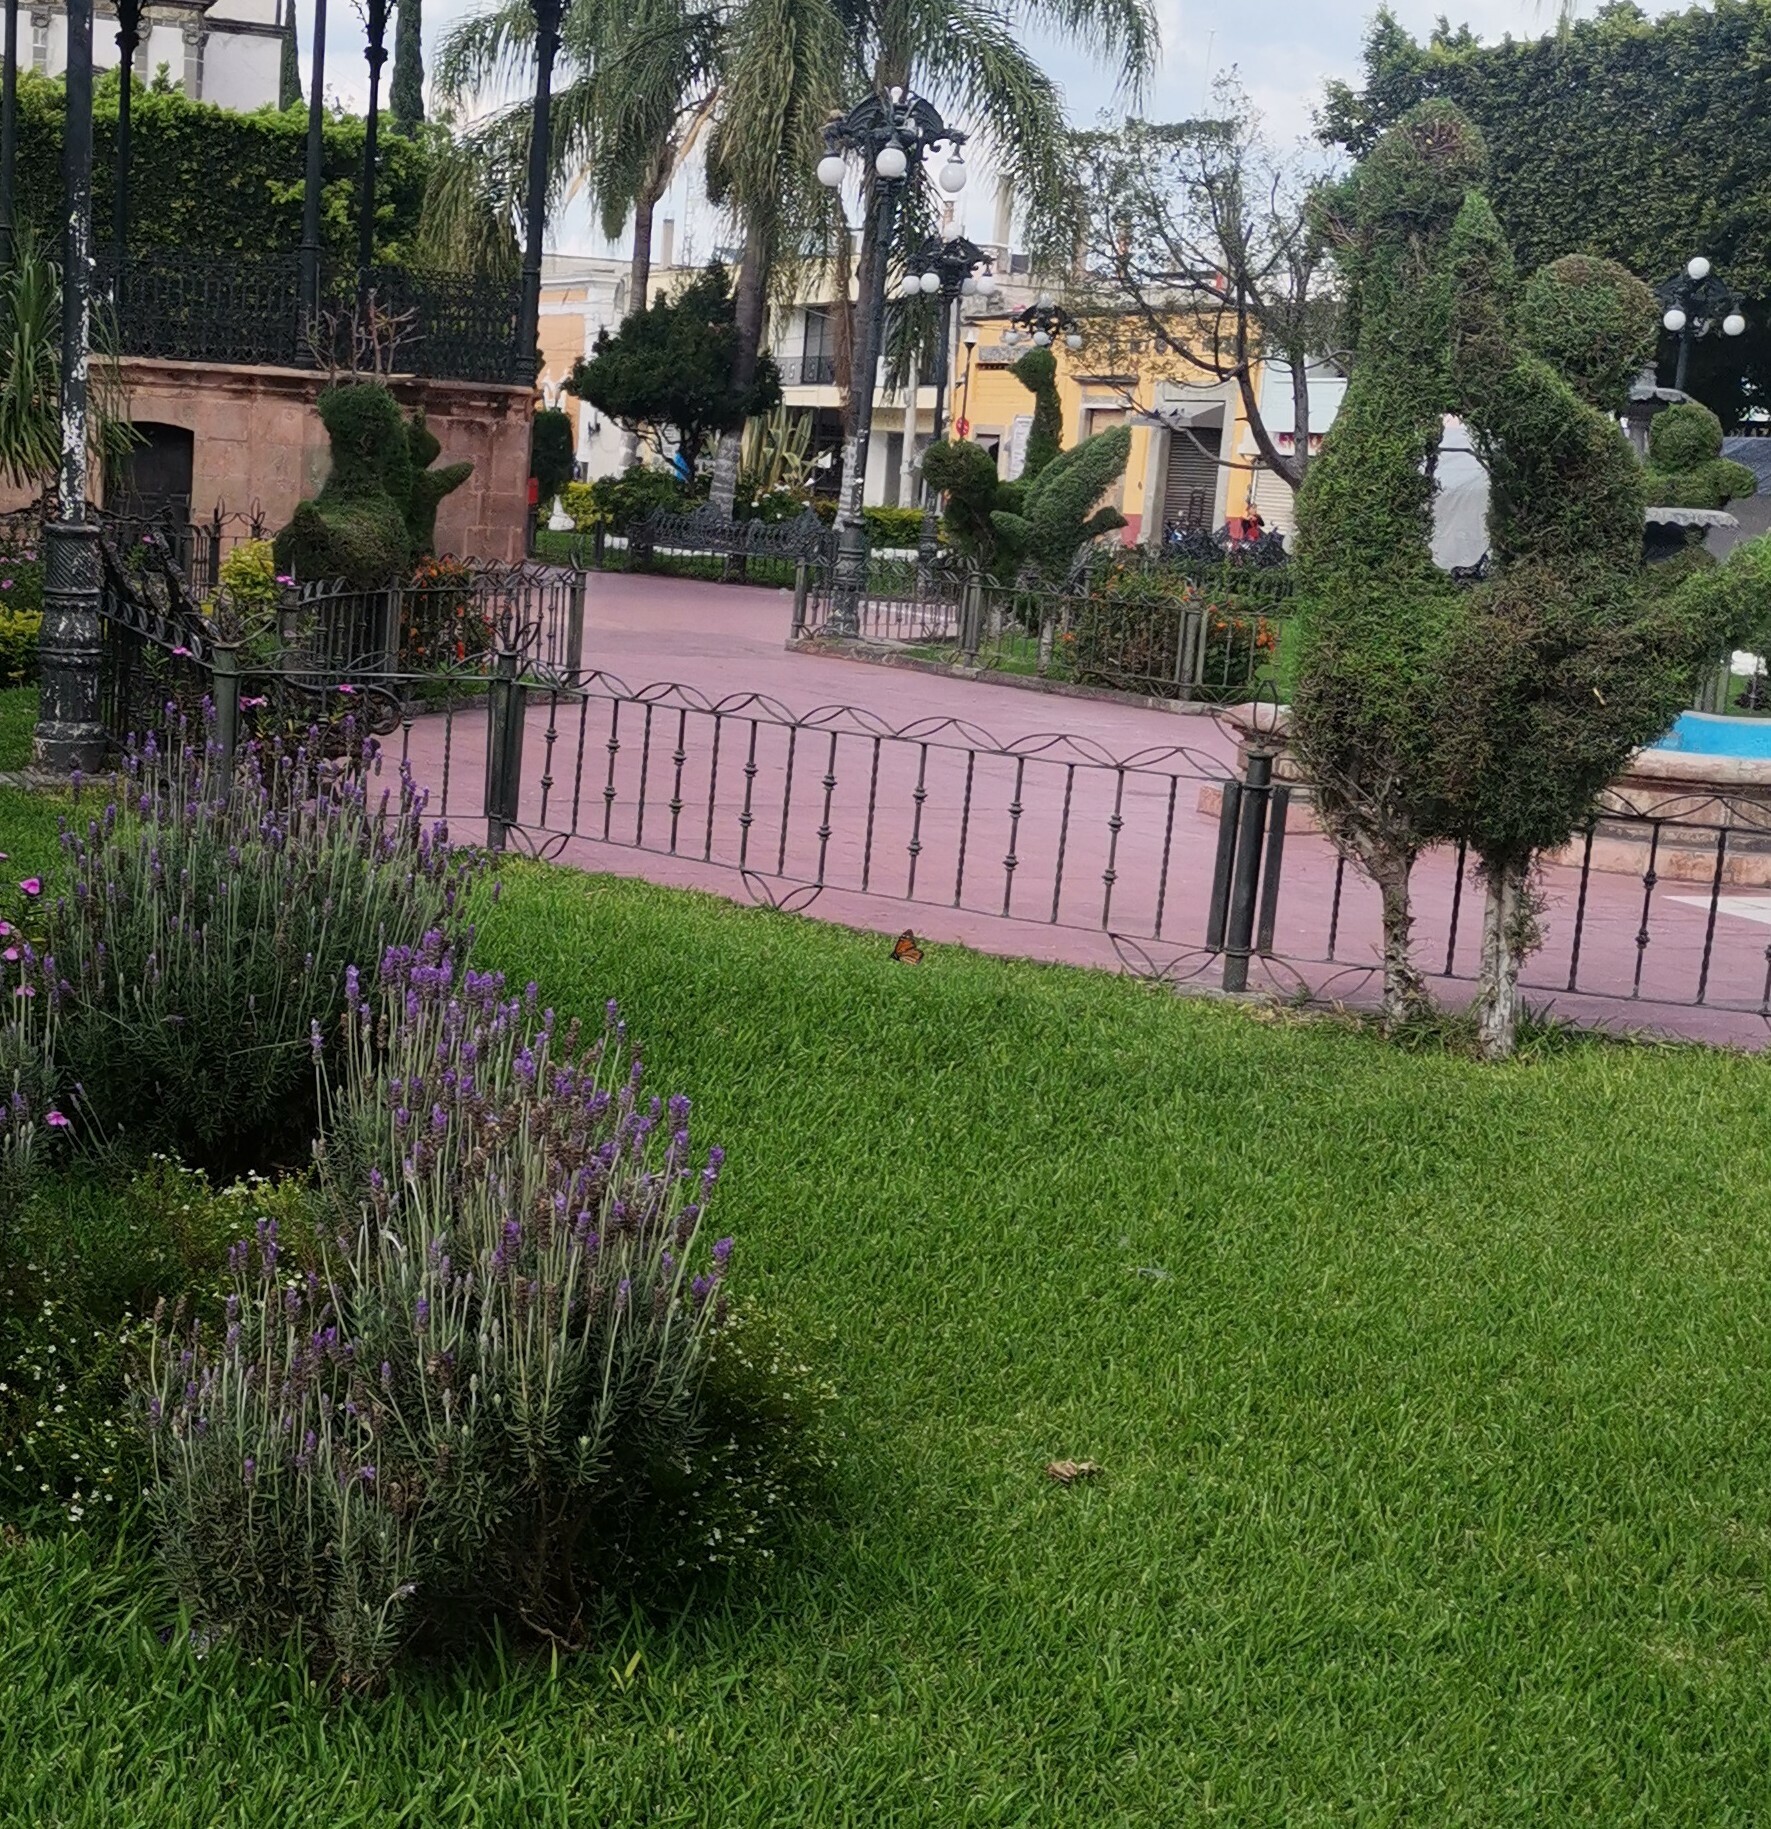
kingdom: Animalia
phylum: Arthropoda
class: Insecta
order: Lepidoptera
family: Nymphalidae
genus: Danaus
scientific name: Danaus plexippus
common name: Monarch
